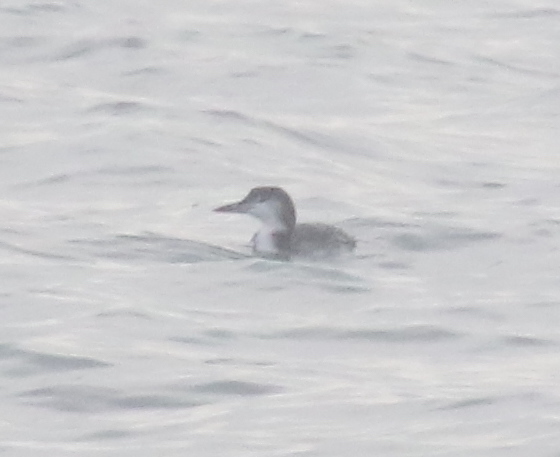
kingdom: Animalia
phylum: Chordata
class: Aves
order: Gaviiformes
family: Gaviidae
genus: Gavia
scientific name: Gavia immer
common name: Common loon
